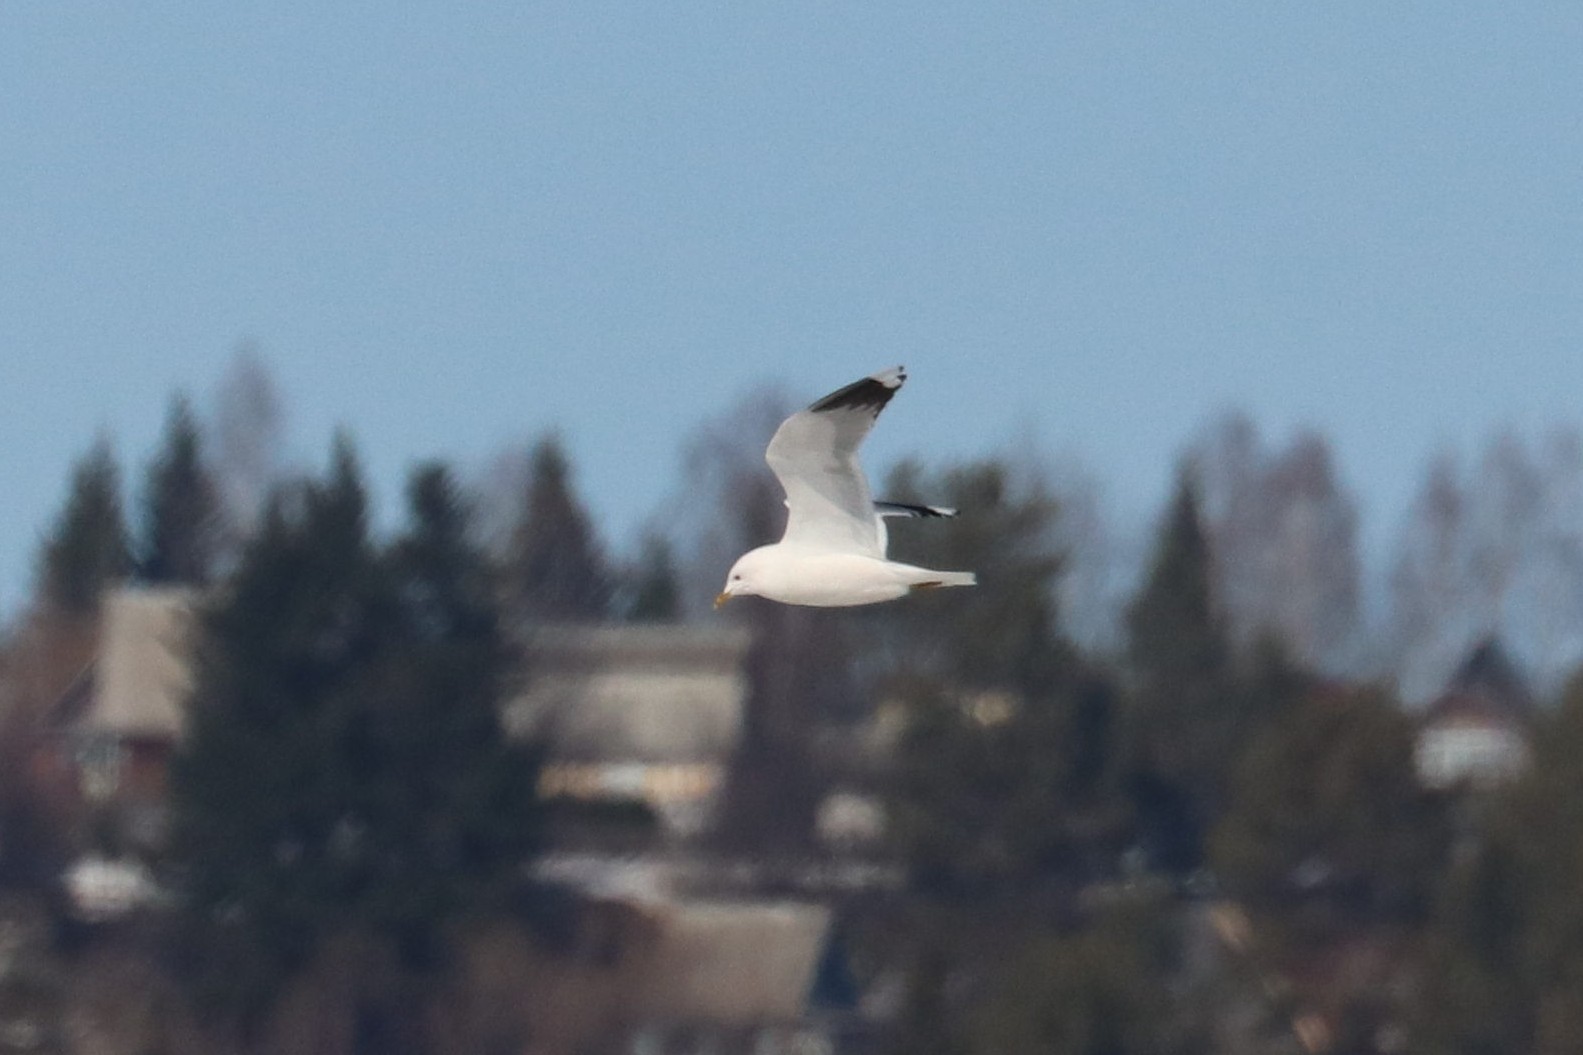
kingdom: Animalia
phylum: Chordata
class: Aves
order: Charadriiformes
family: Laridae
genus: Larus
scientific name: Larus canus
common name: Mew gull
